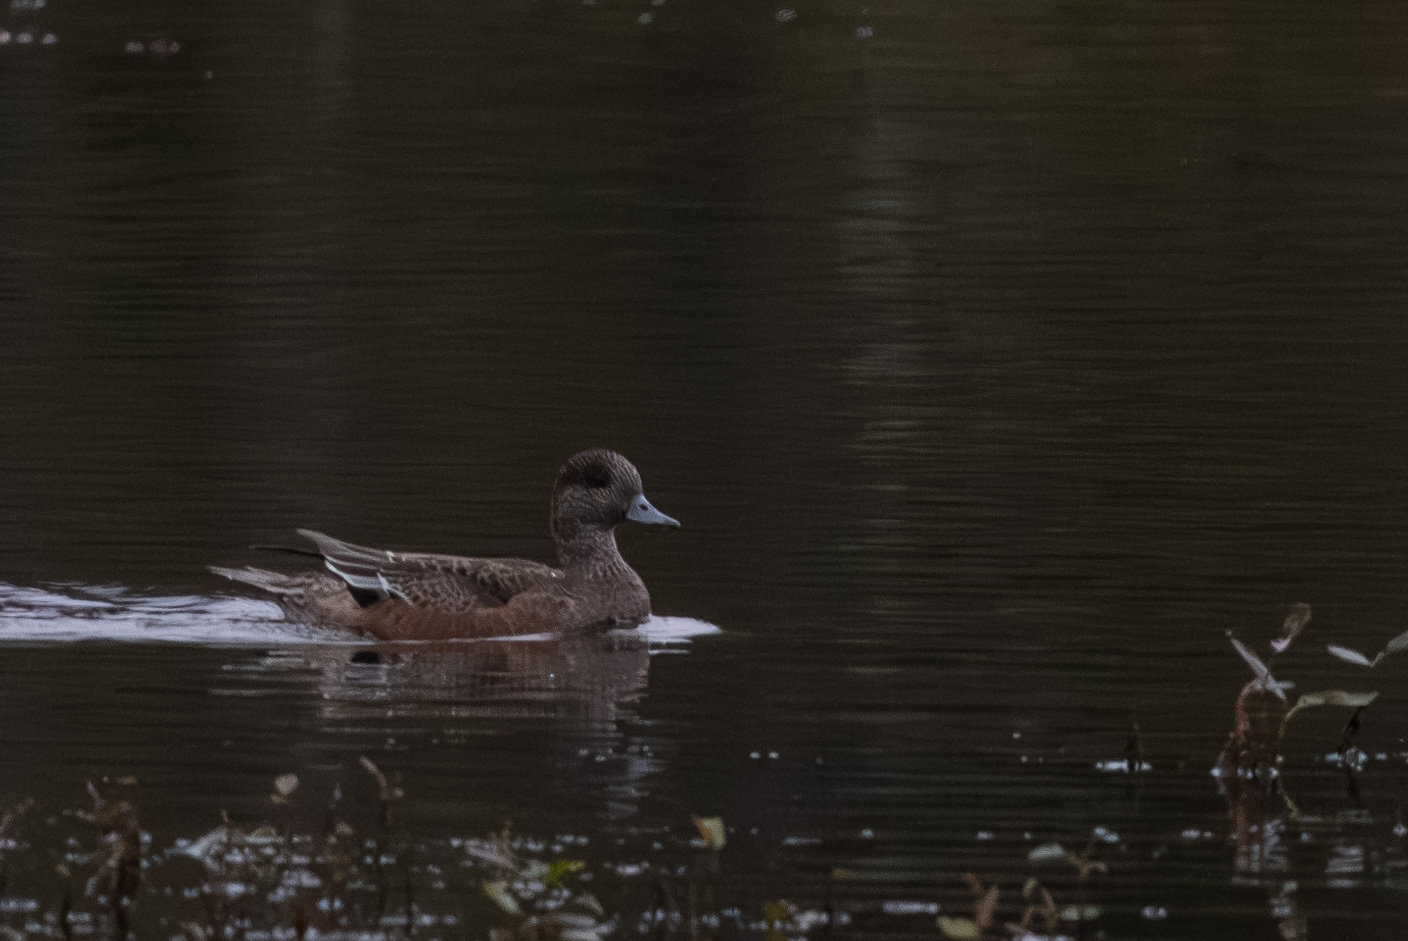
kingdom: Animalia
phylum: Chordata
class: Aves
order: Anseriformes
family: Anatidae
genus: Mareca
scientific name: Mareca americana
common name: American wigeon
